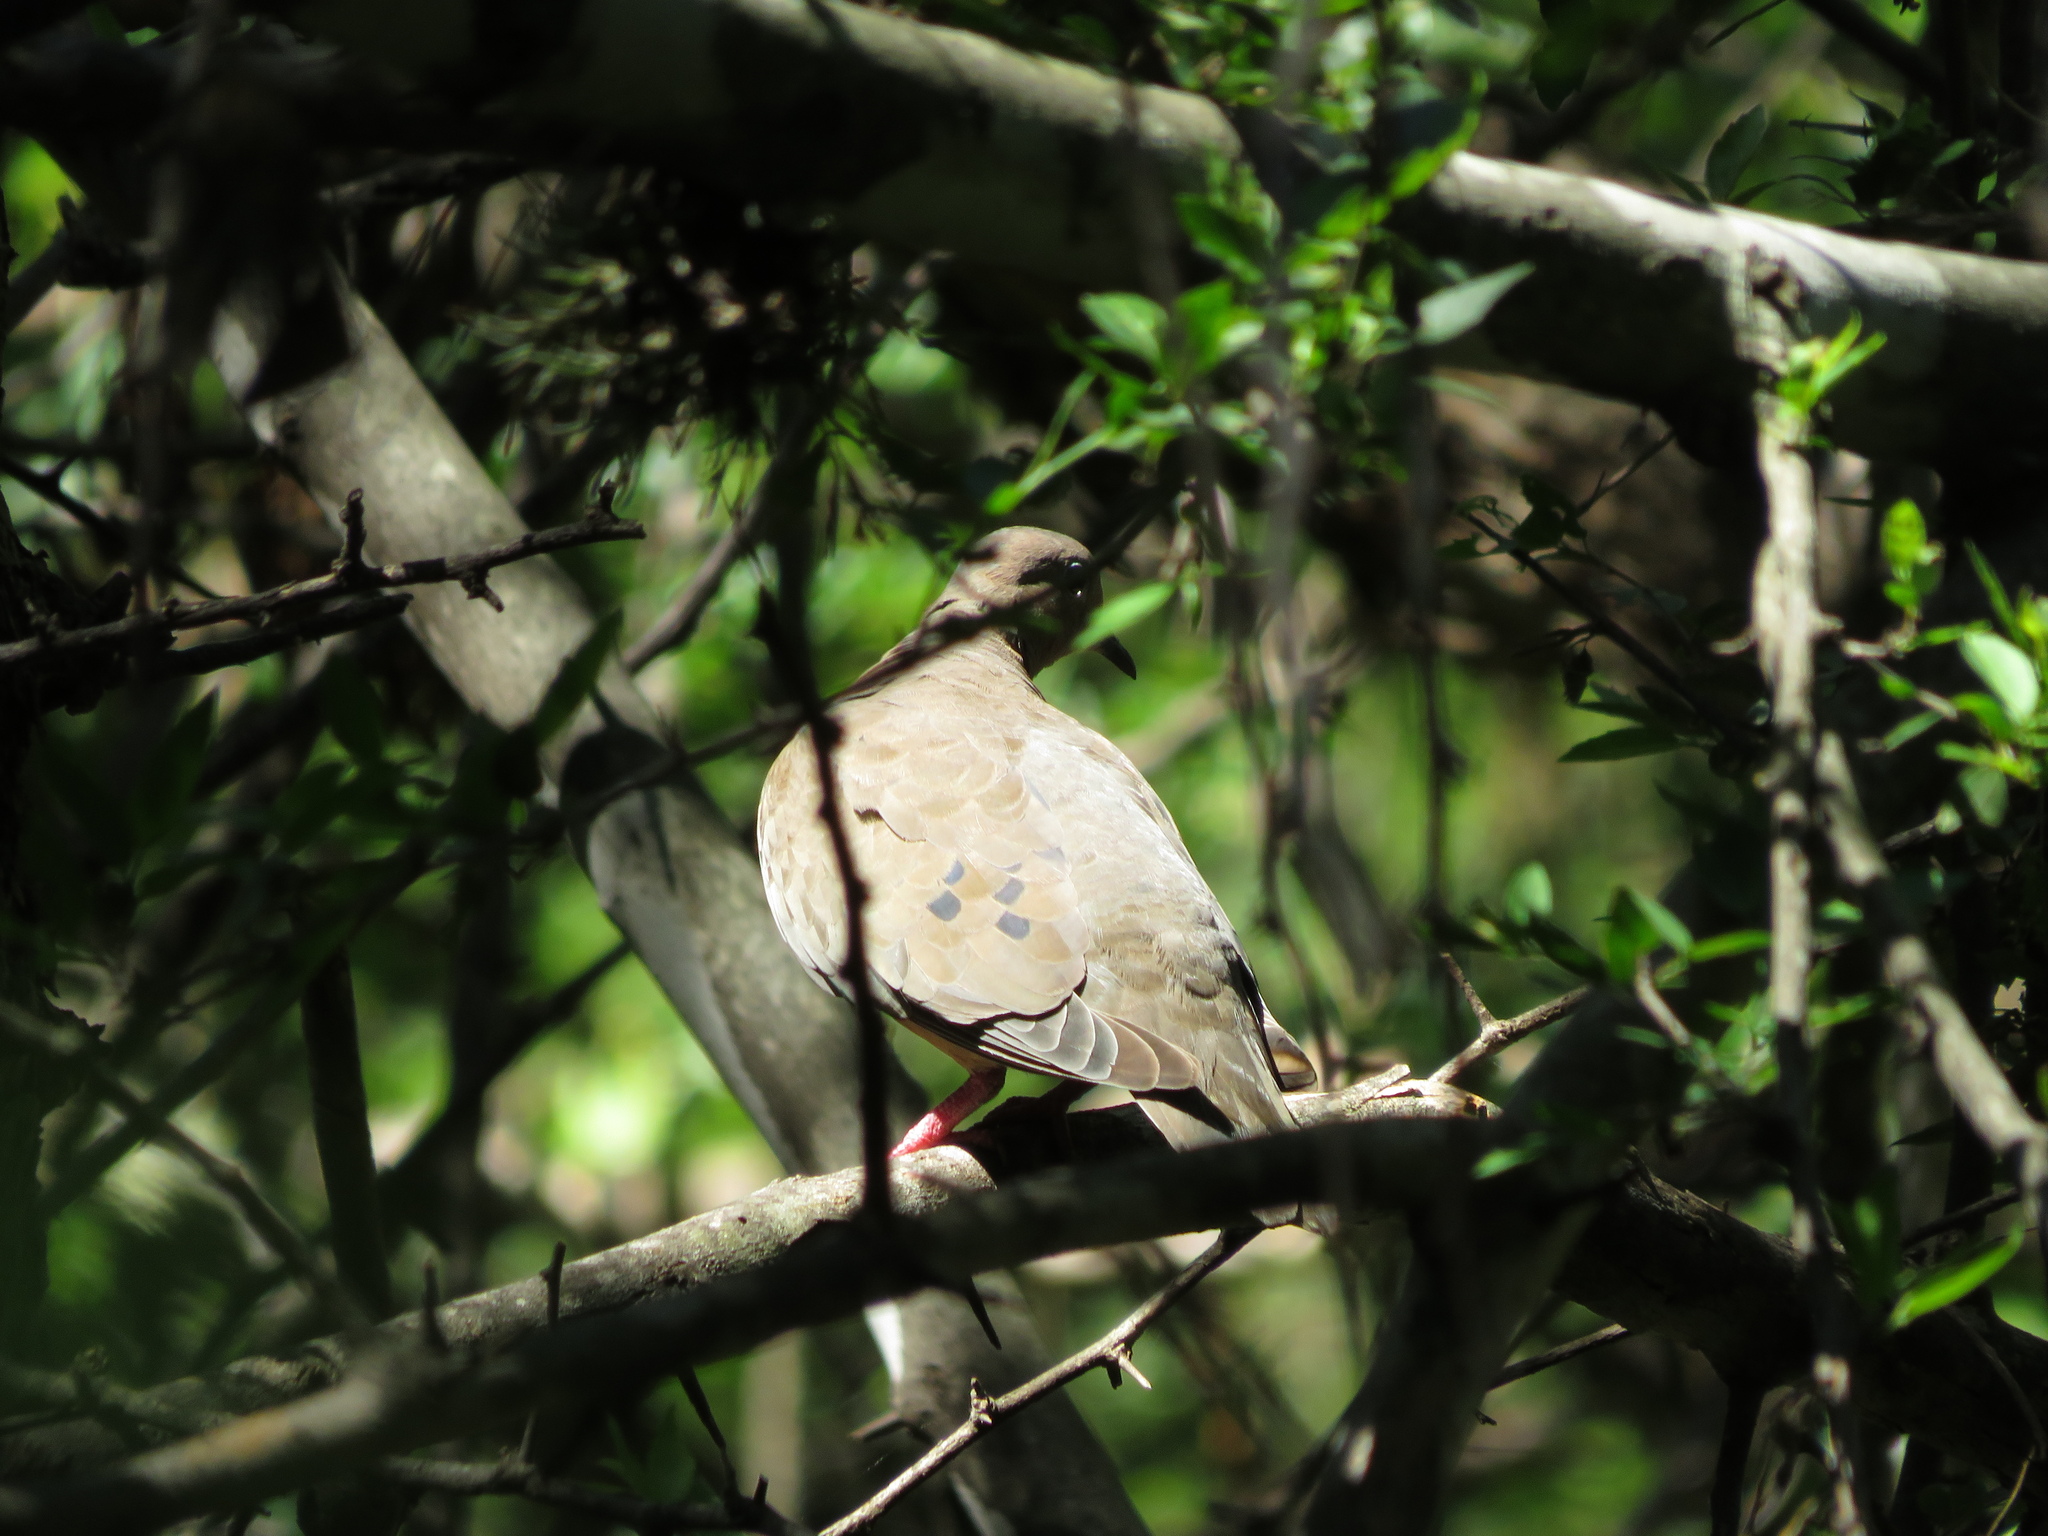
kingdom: Animalia
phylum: Chordata
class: Aves
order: Columbiformes
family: Columbidae
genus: Zenaida
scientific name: Zenaida auriculata
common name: Eared dove
